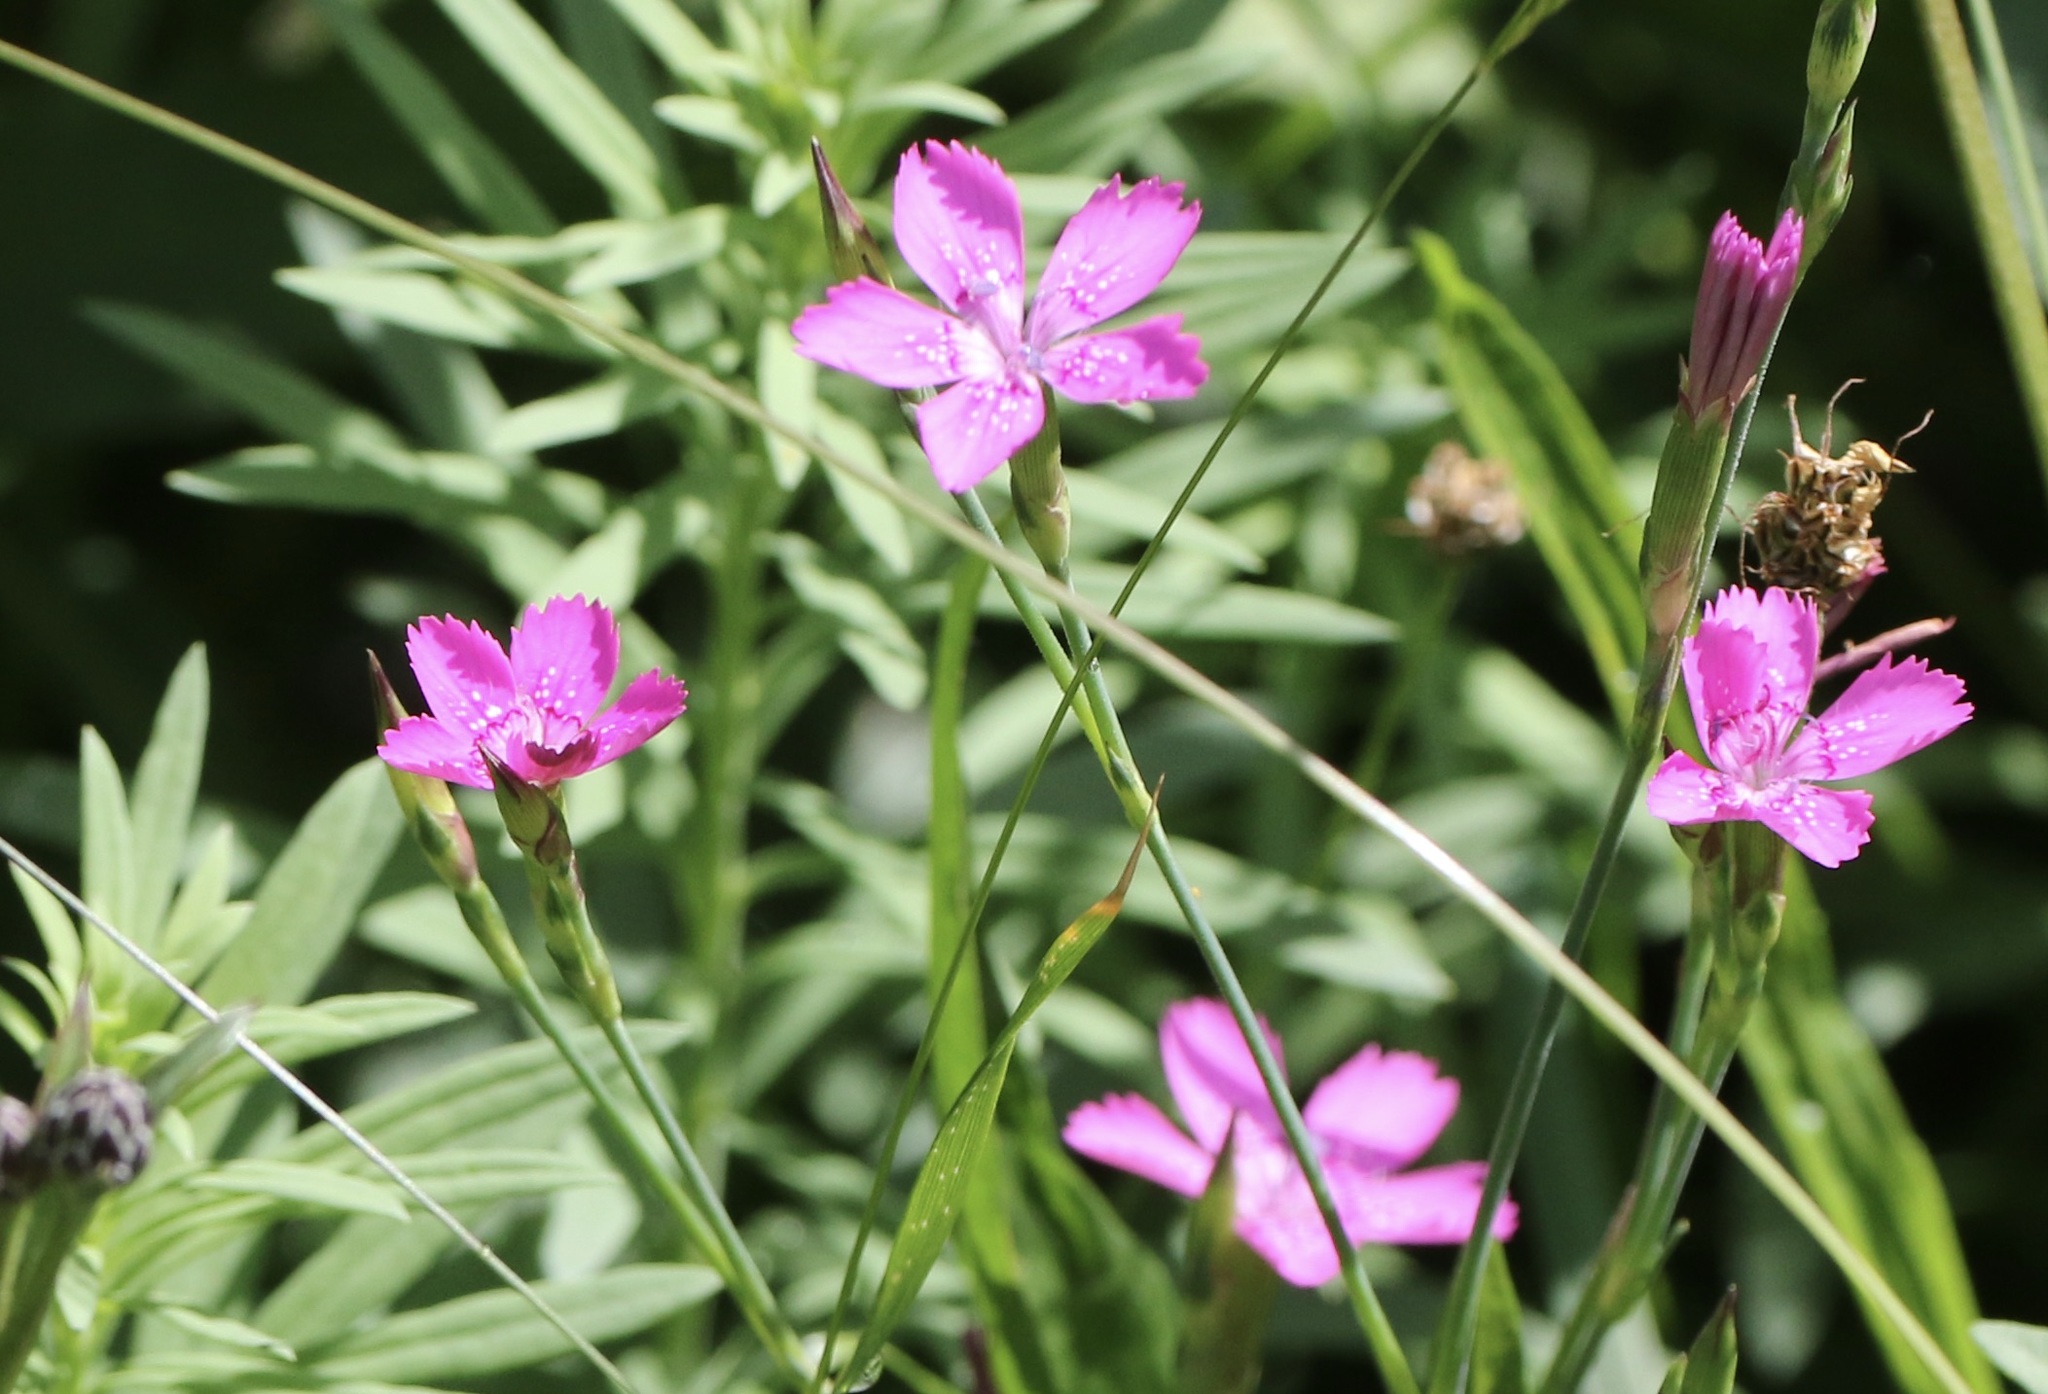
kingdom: Plantae
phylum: Tracheophyta
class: Magnoliopsida
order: Caryophyllales
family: Caryophyllaceae
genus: Dianthus
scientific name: Dianthus deltoides
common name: Maiden pink
